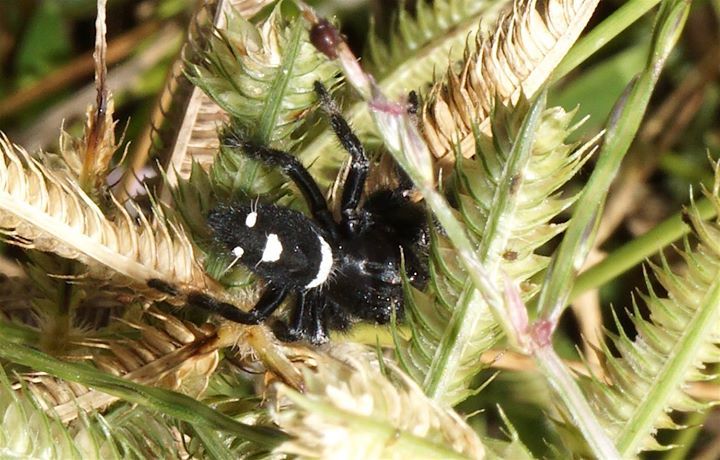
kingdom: Animalia
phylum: Arthropoda
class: Arachnida
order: Araneae
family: Salticidae
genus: Phidippus
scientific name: Phidippus regius
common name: Regal jumper
